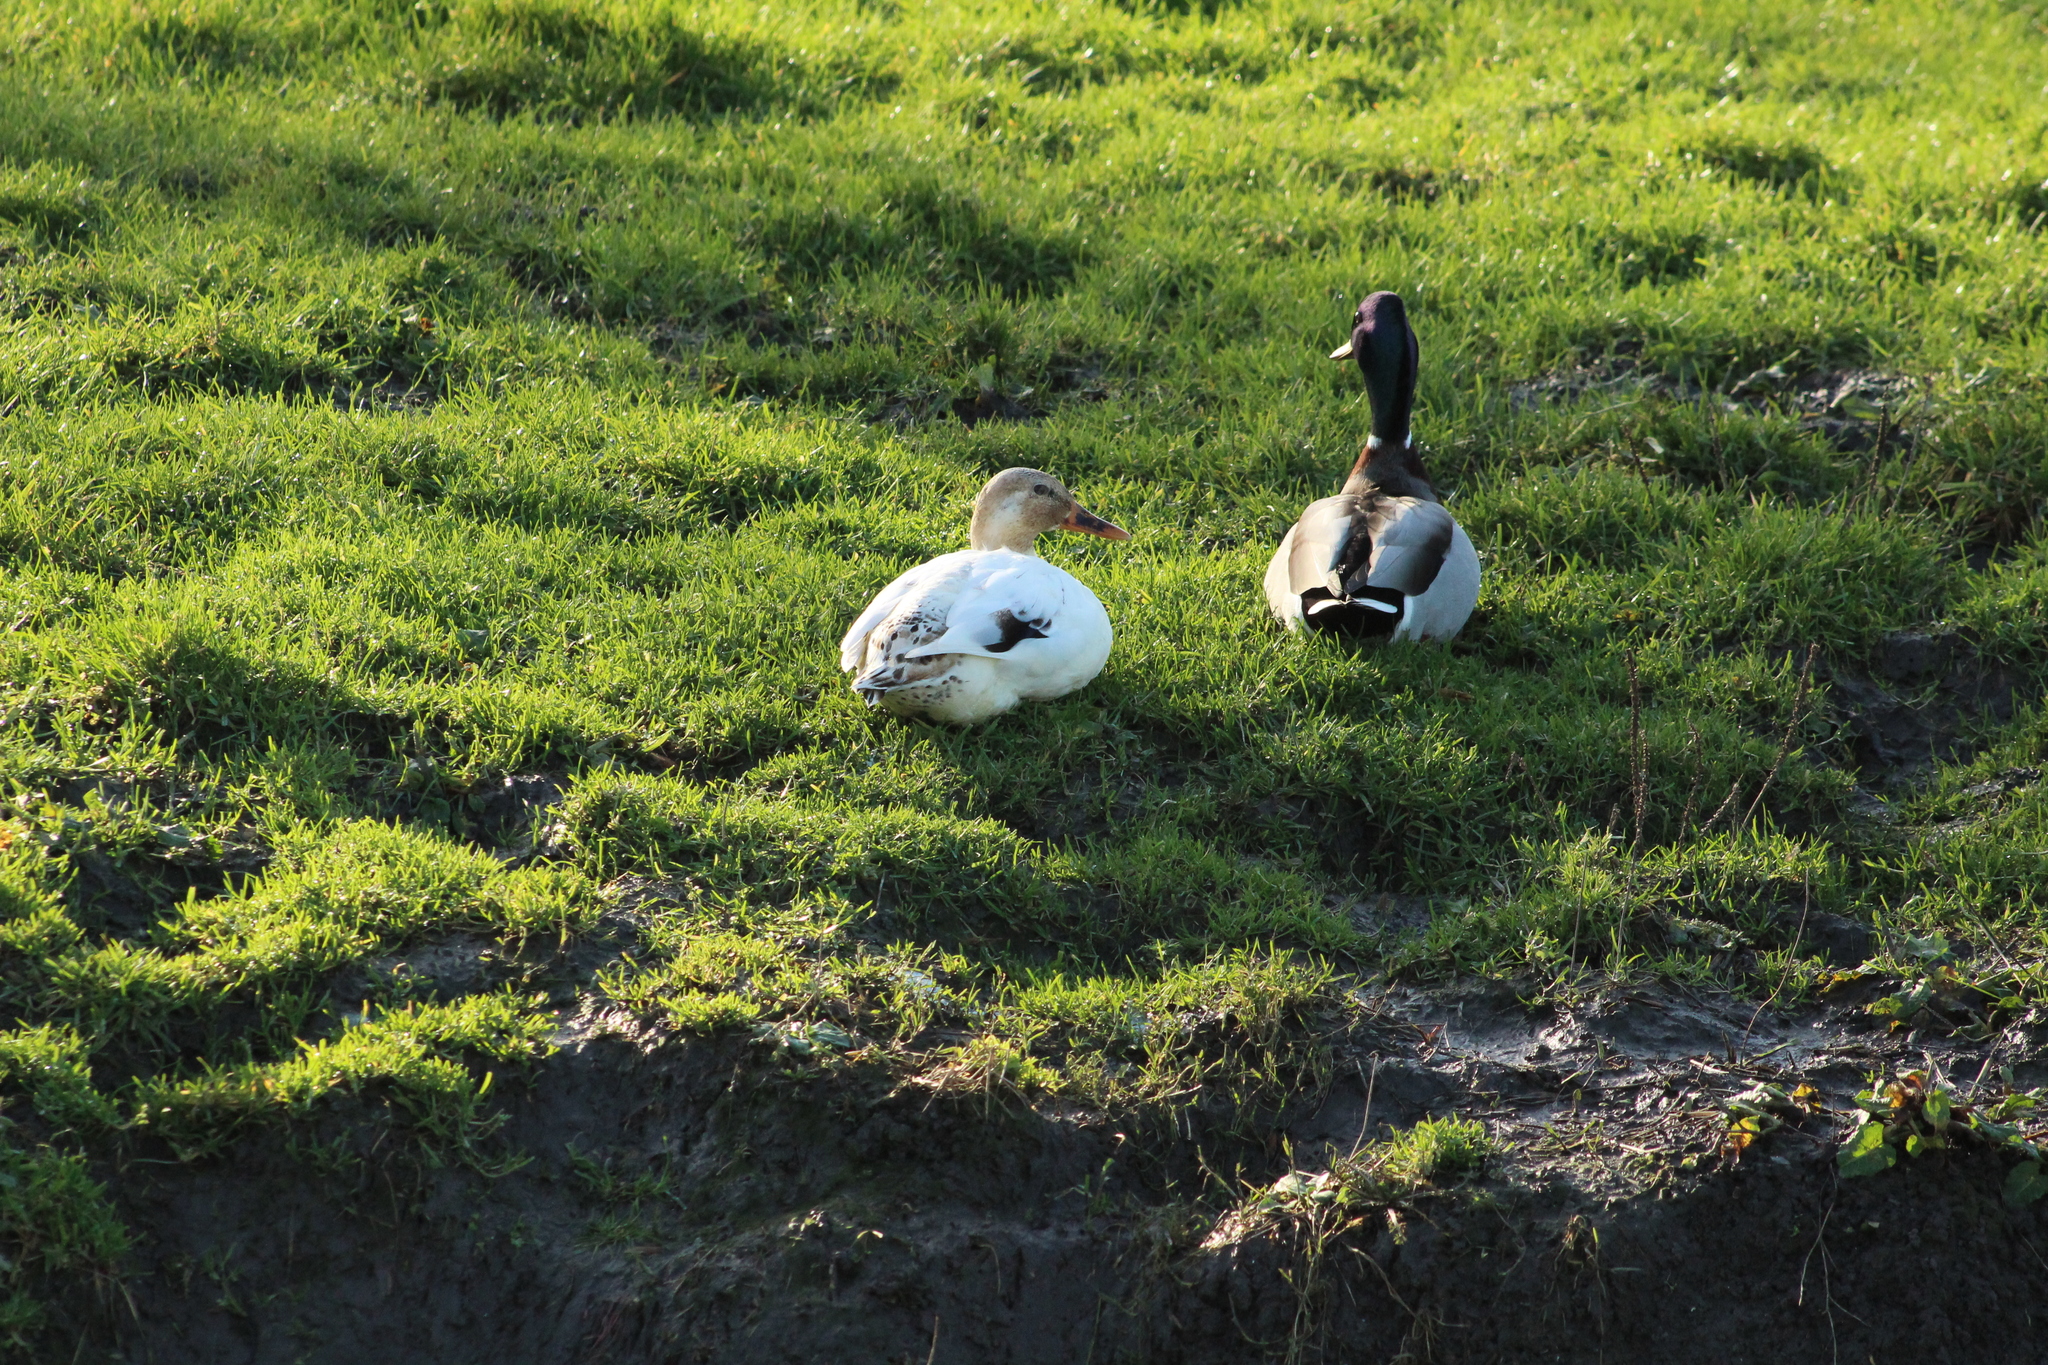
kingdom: Animalia
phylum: Chordata
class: Aves
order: Anseriformes
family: Anatidae
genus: Anas
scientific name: Anas platyrhynchos
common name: Mallard
